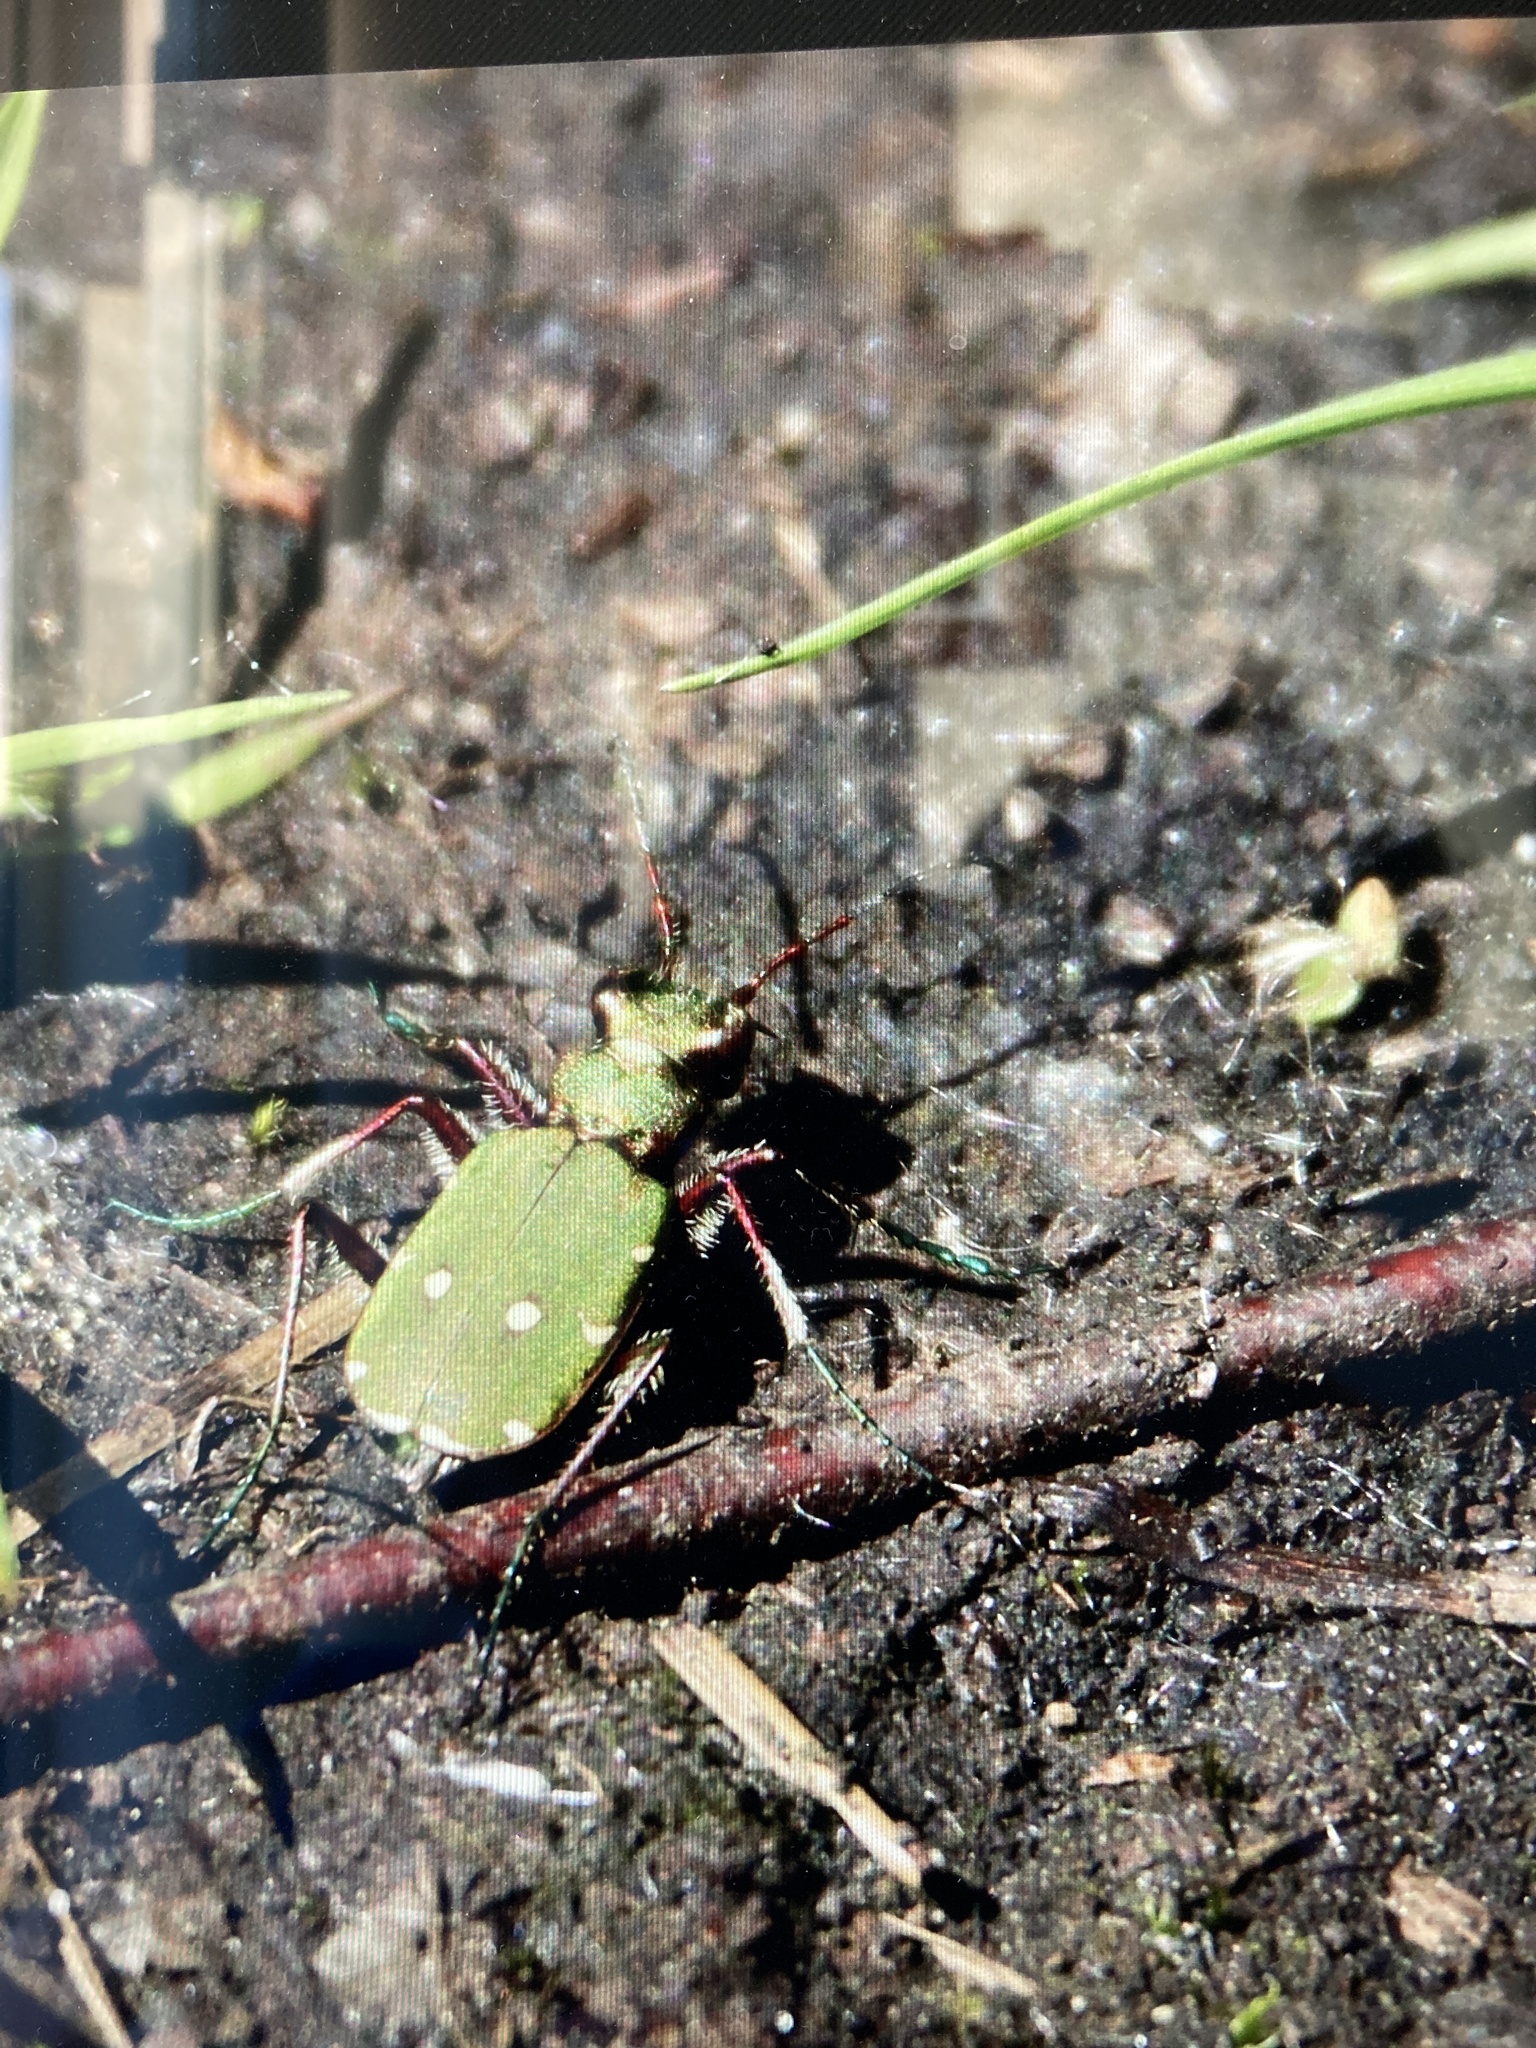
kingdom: Animalia
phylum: Arthropoda
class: Insecta
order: Coleoptera
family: Carabidae
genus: Cicindela
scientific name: Cicindela campestris
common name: Common tiger beetle
